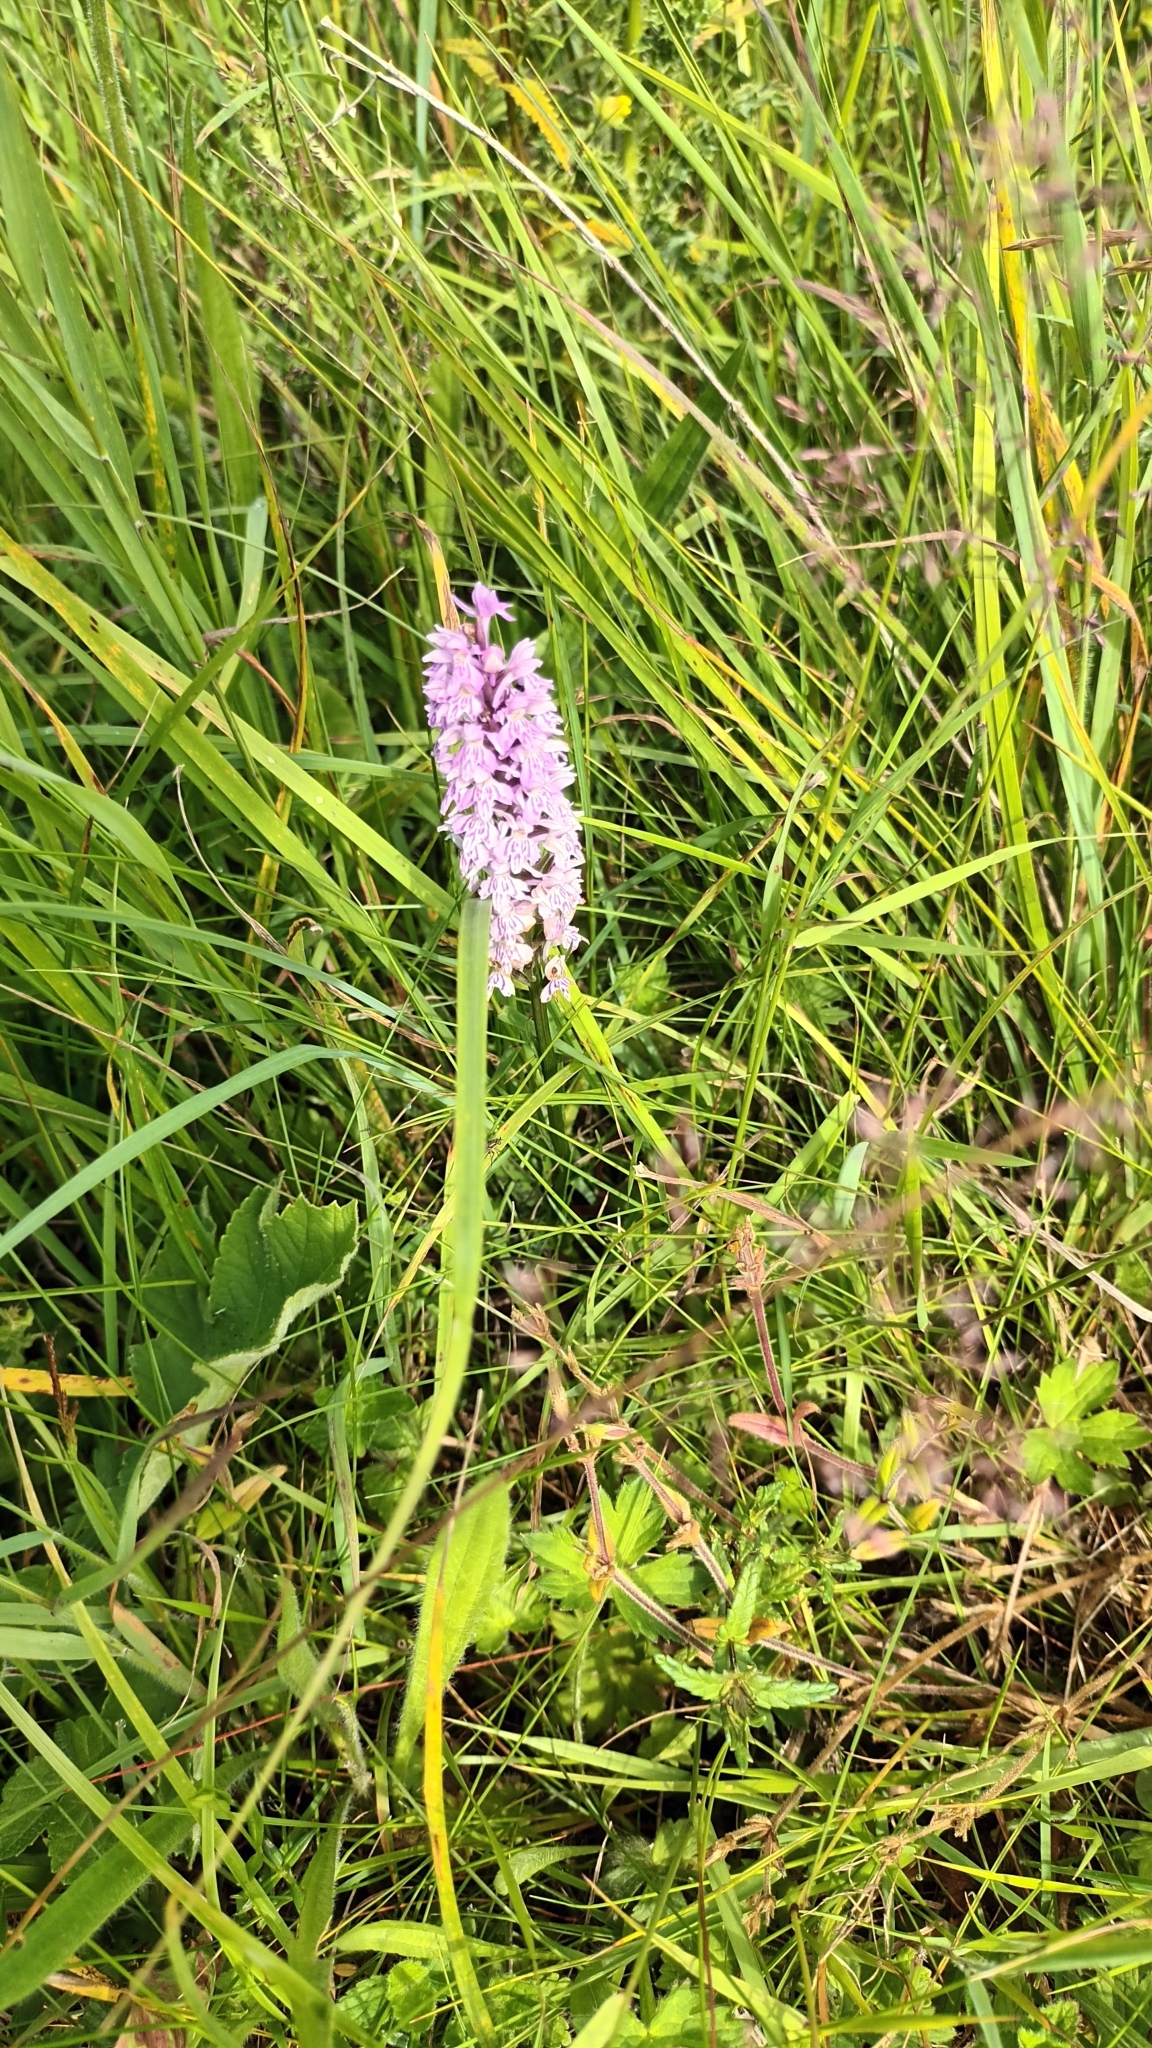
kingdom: Plantae
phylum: Tracheophyta
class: Liliopsida
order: Asparagales
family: Orchidaceae
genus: Dactylorhiza
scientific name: Dactylorhiza maculata
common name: Heath spotted-orchid
